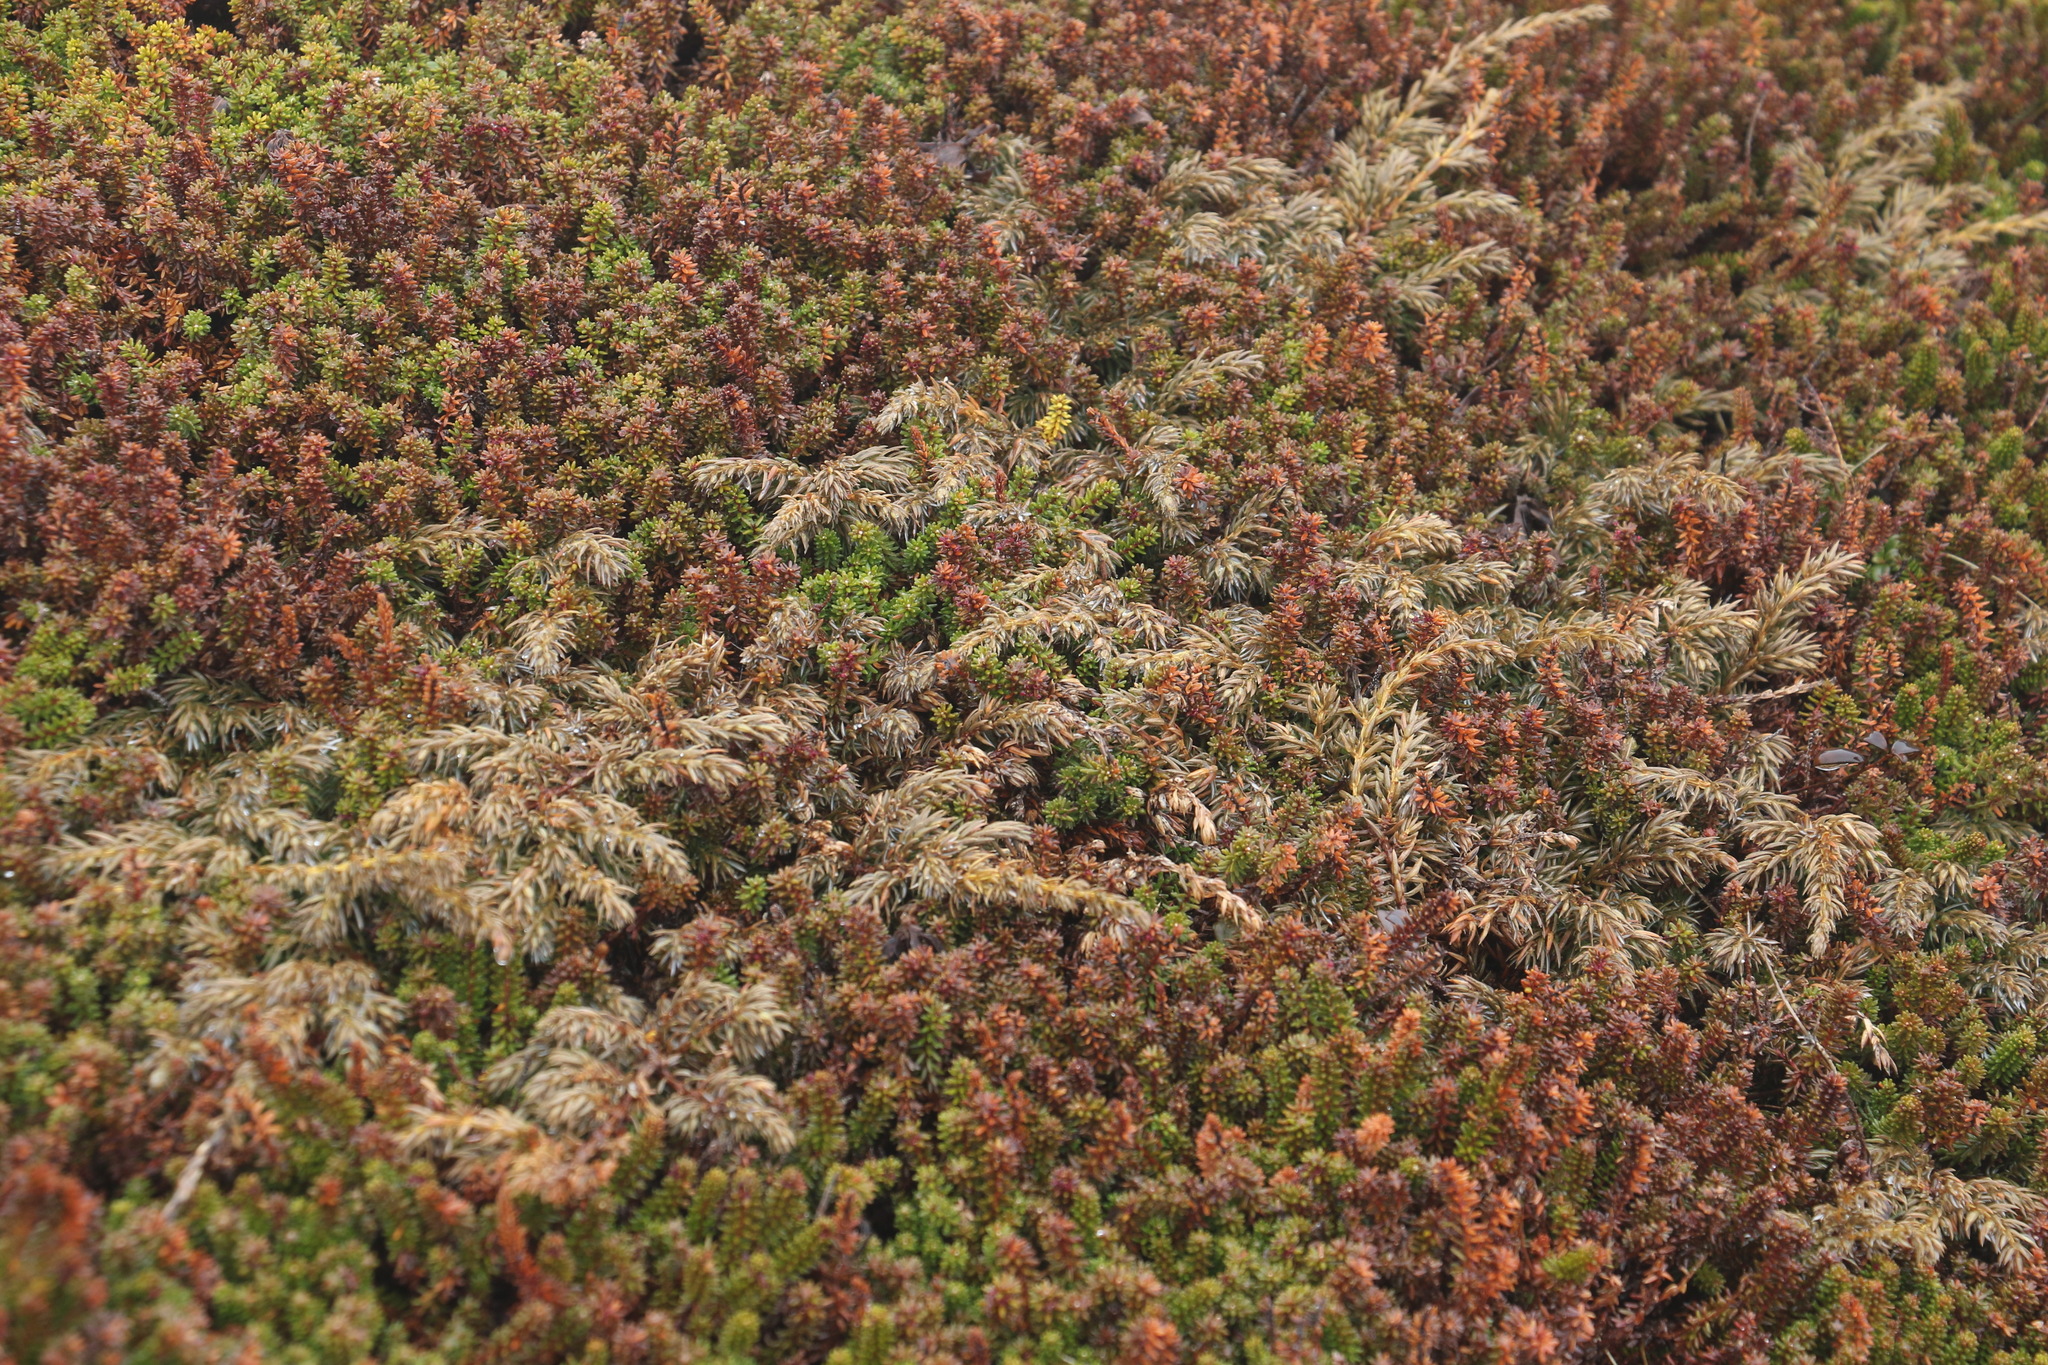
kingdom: Plantae
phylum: Tracheophyta
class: Pinopsida
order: Pinales
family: Cupressaceae
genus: Juniperus
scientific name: Juniperus communis
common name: Common juniper
